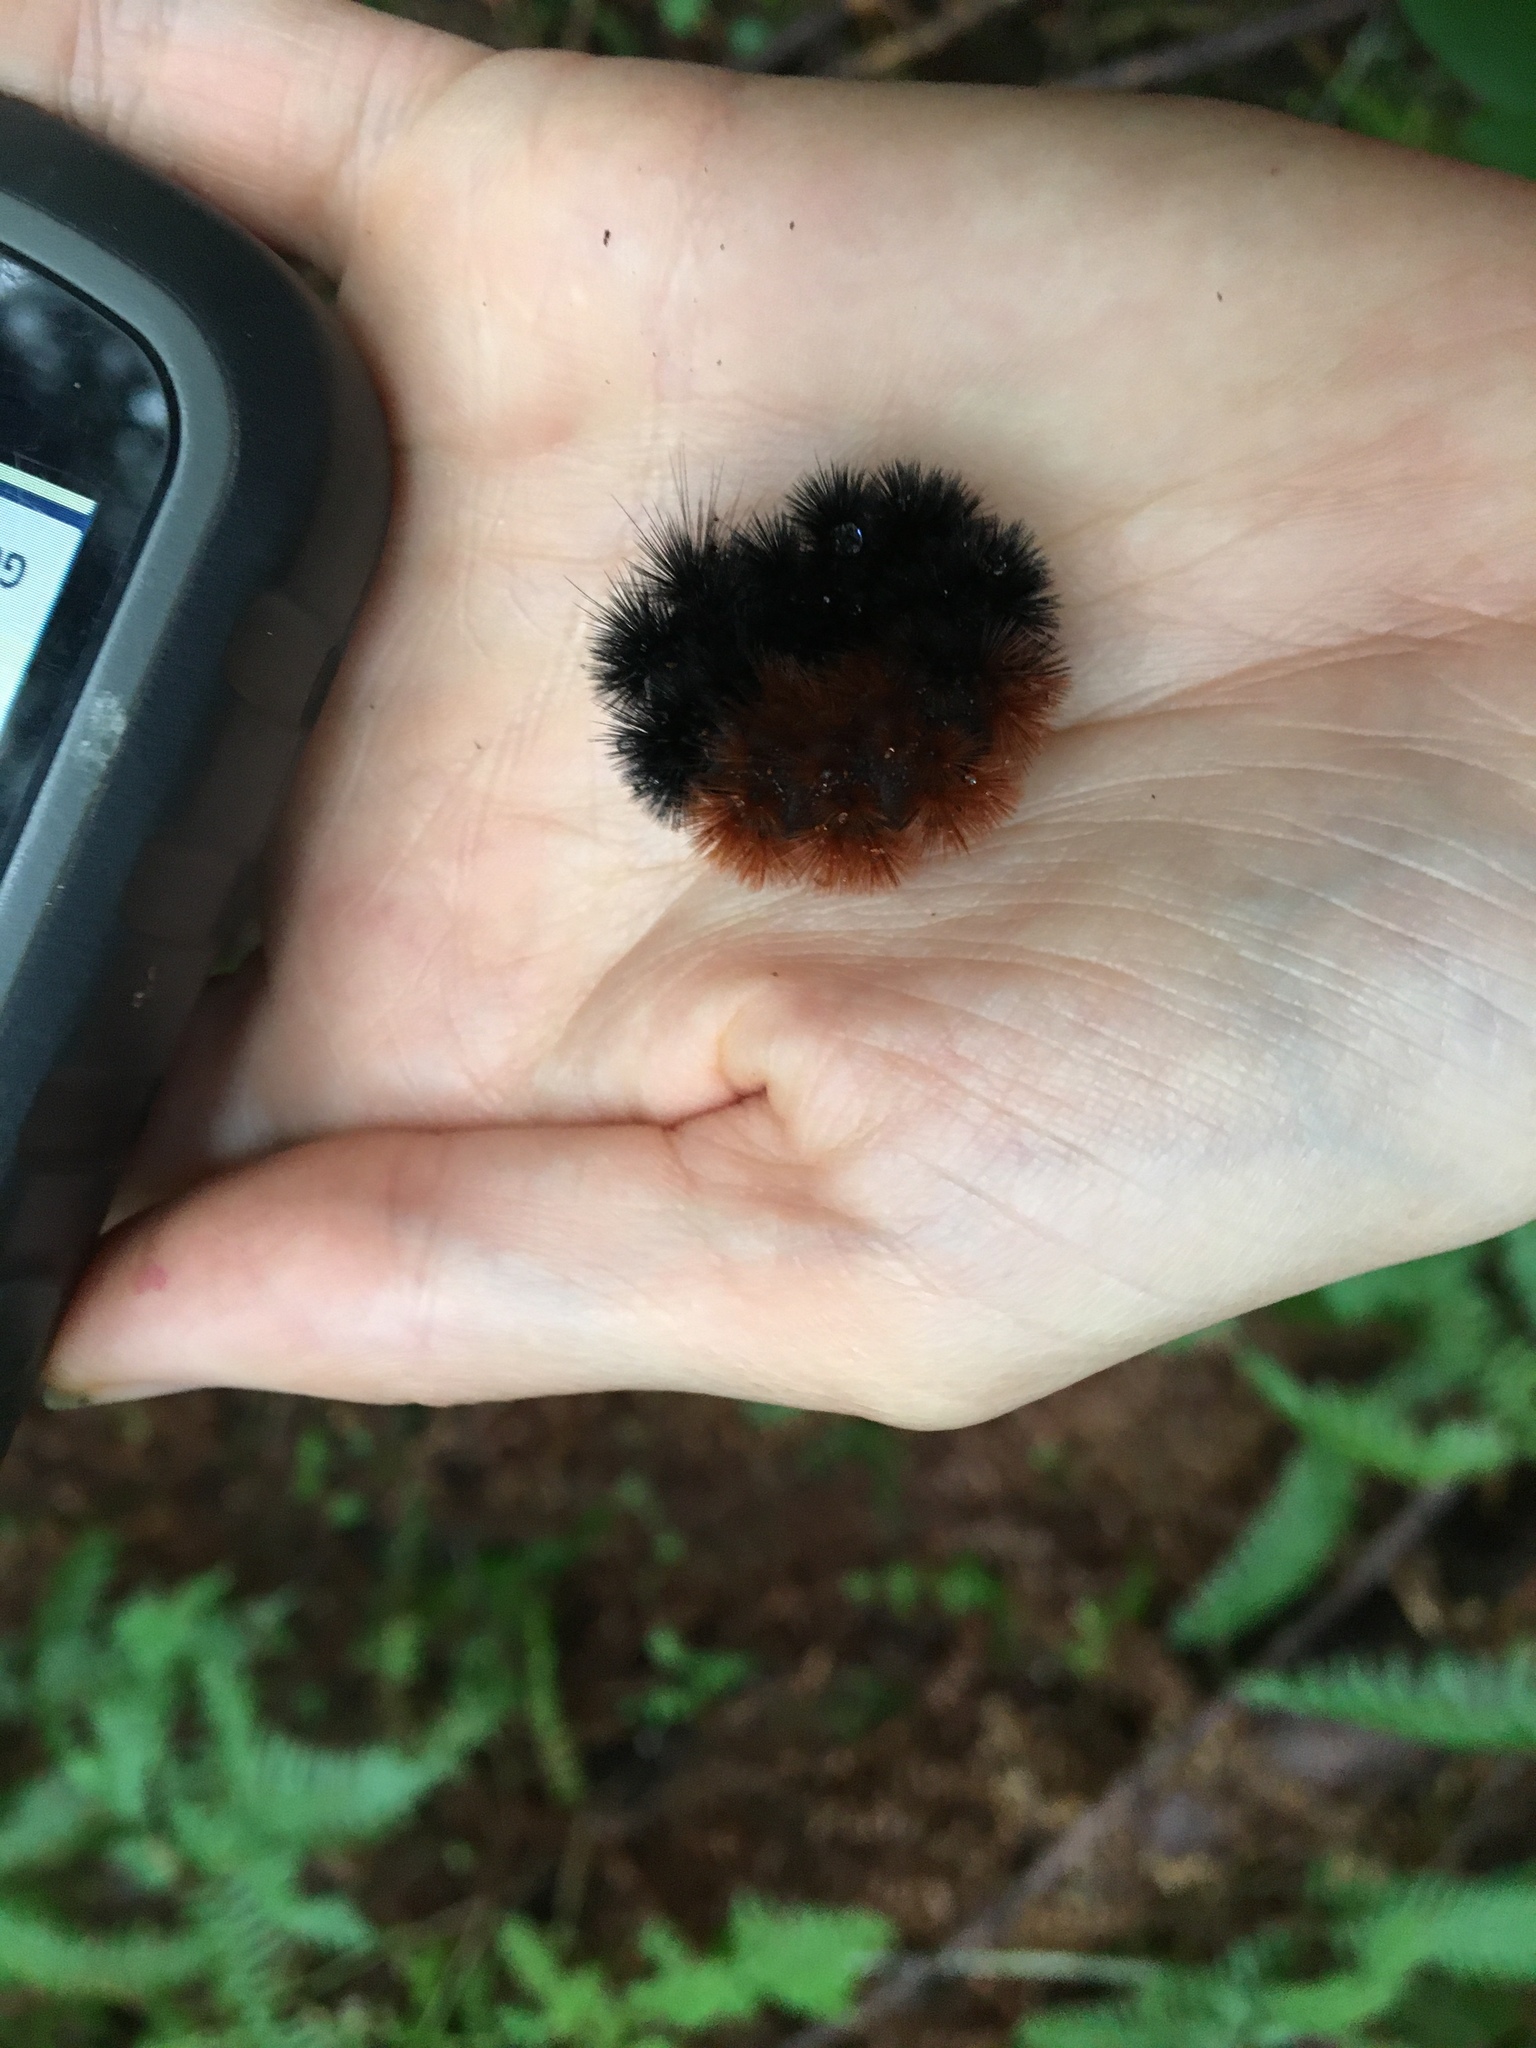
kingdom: Animalia
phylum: Arthropoda
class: Insecta
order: Lepidoptera
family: Erebidae
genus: Pyrrharctia
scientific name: Pyrrharctia isabella
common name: Isabella tiger moth
